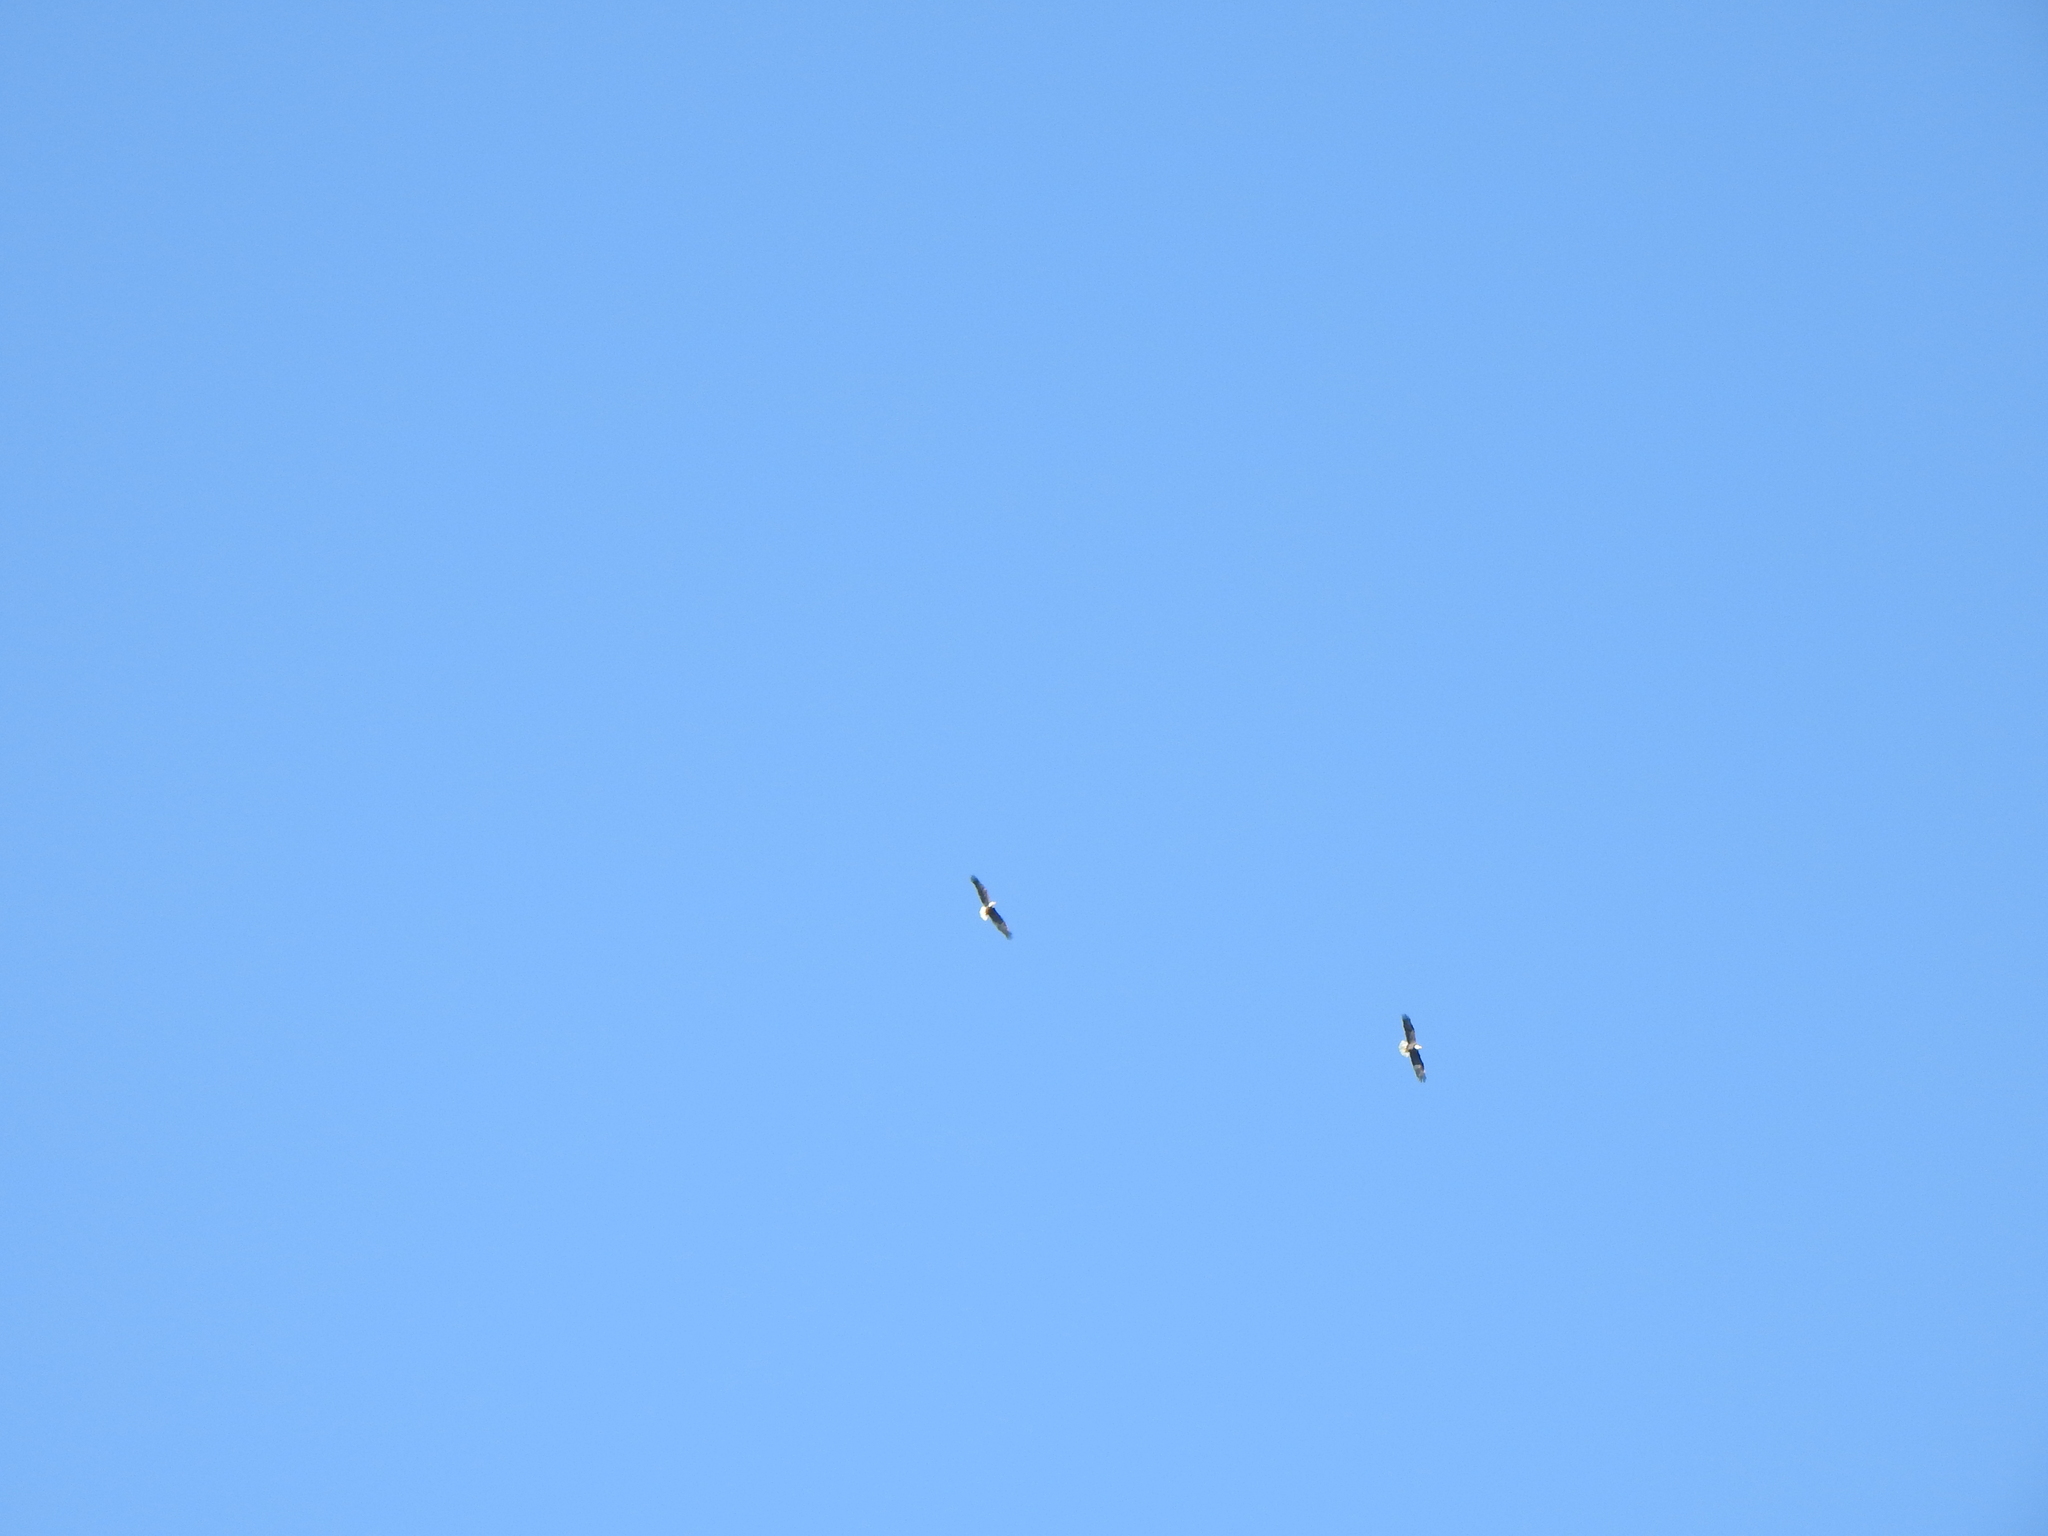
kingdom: Animalia
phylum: Chordata
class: Aves
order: Accipitriformes
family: Accipitridae
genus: Haliaeetus
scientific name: Haliaeetus leucocephalus
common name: Bald eagle
